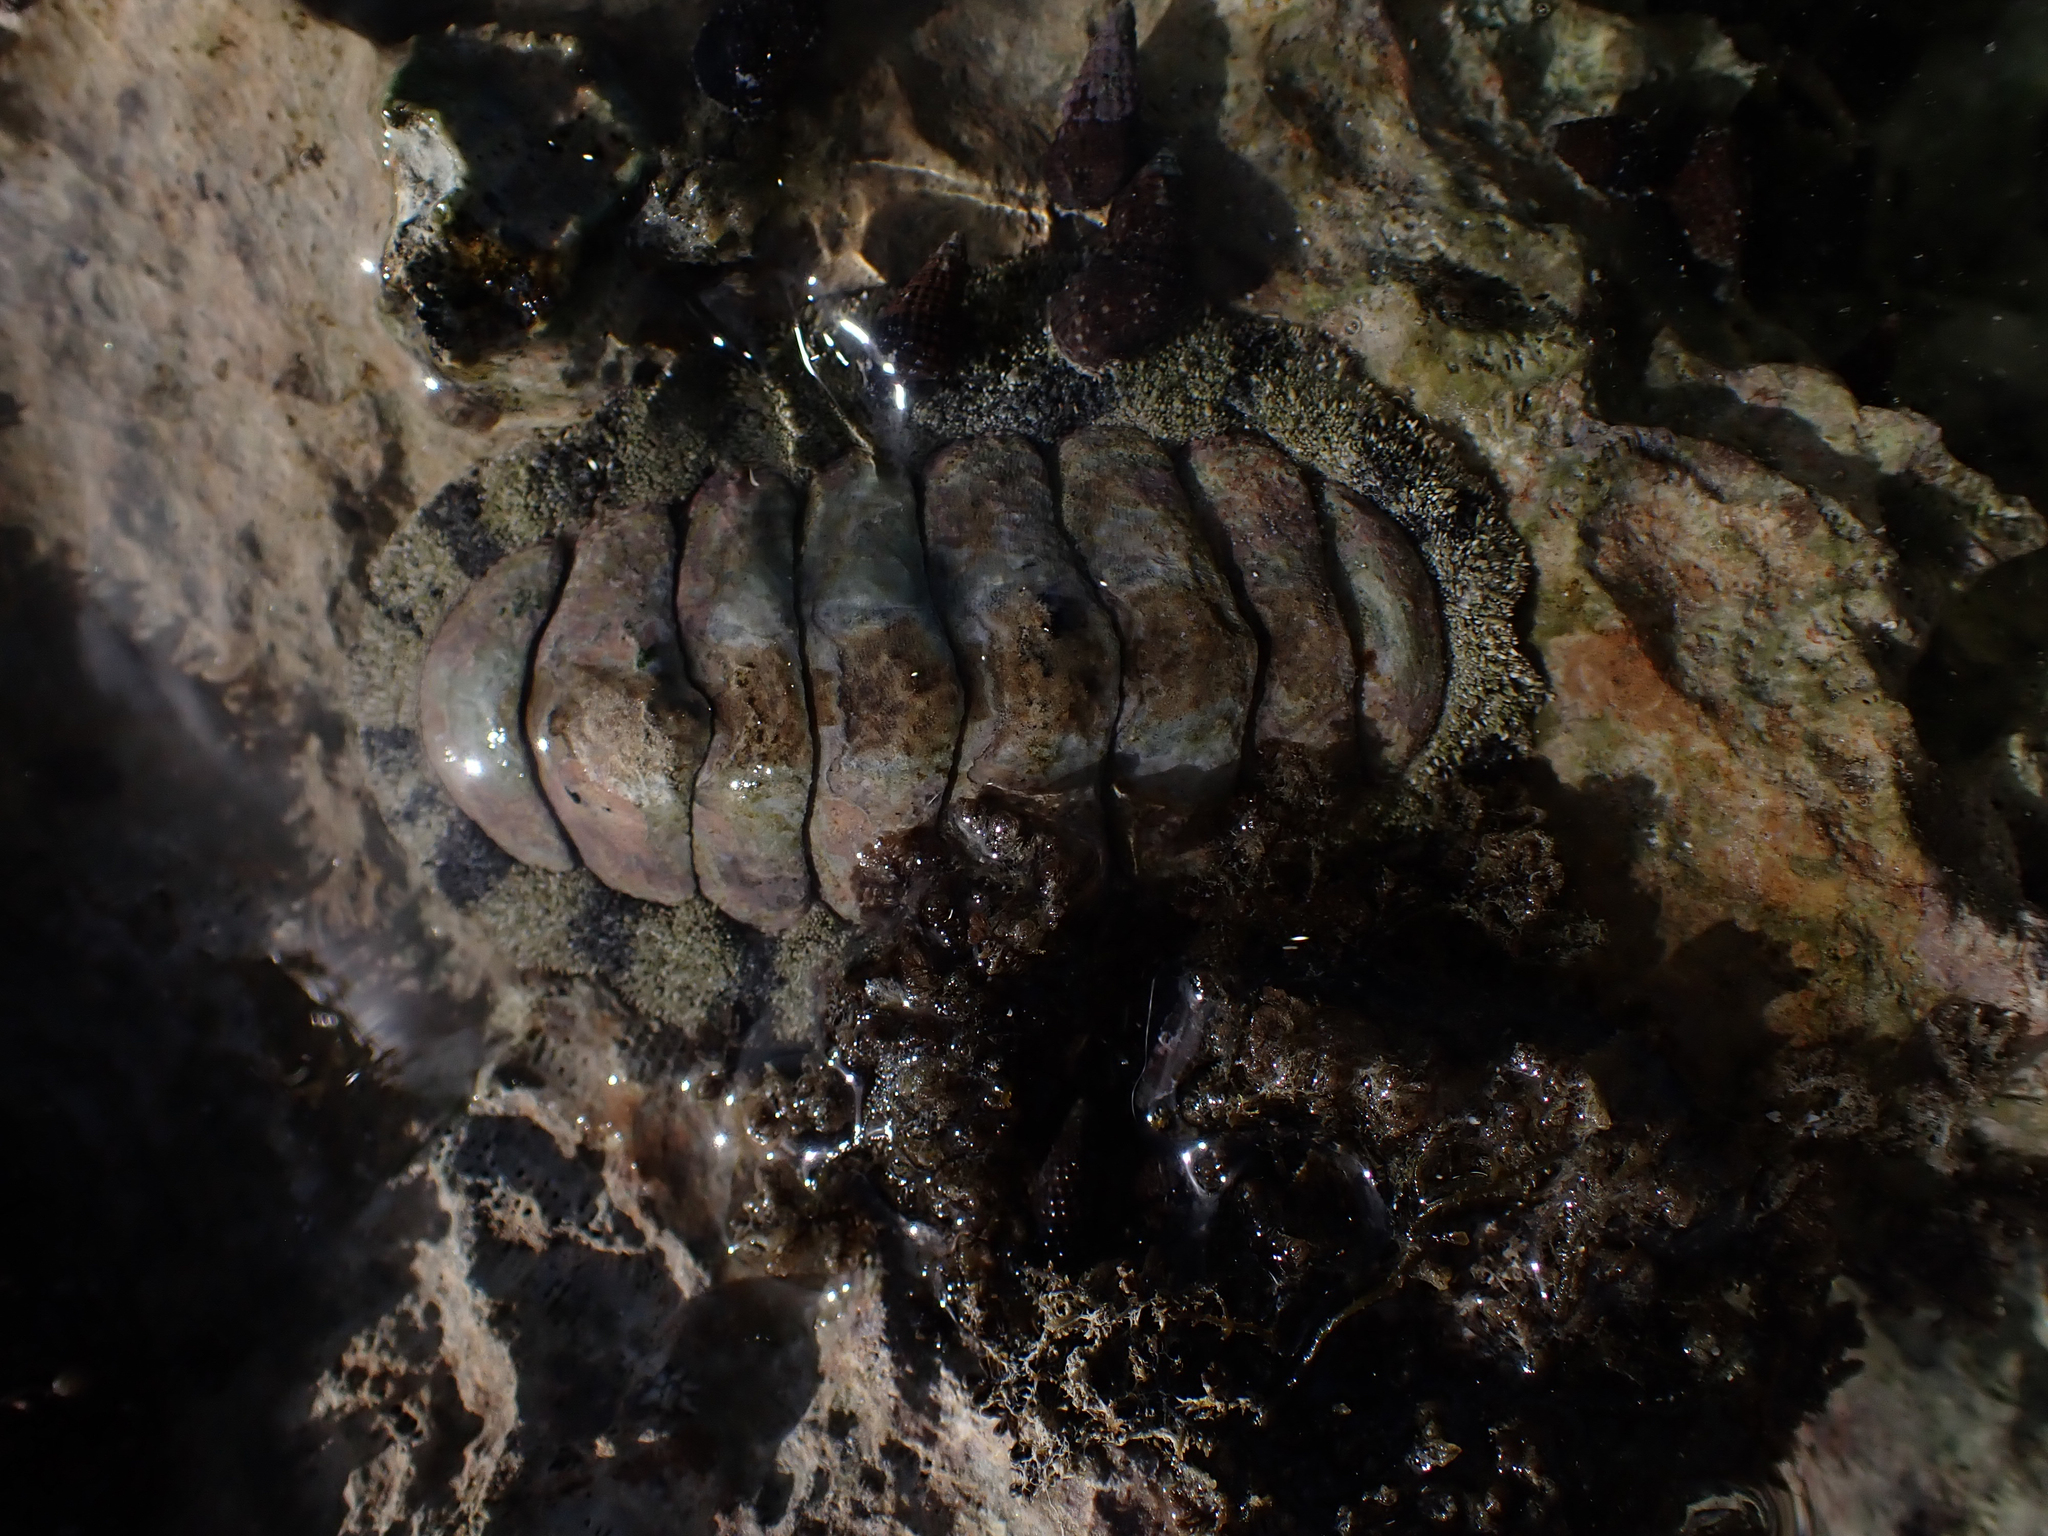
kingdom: Animalia
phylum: Mollusca
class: Polyplacophora
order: Chitonida
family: Chitonidae
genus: Acanthopleura
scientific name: Acanthopleura granulata
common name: West indian fuzzy chiton
